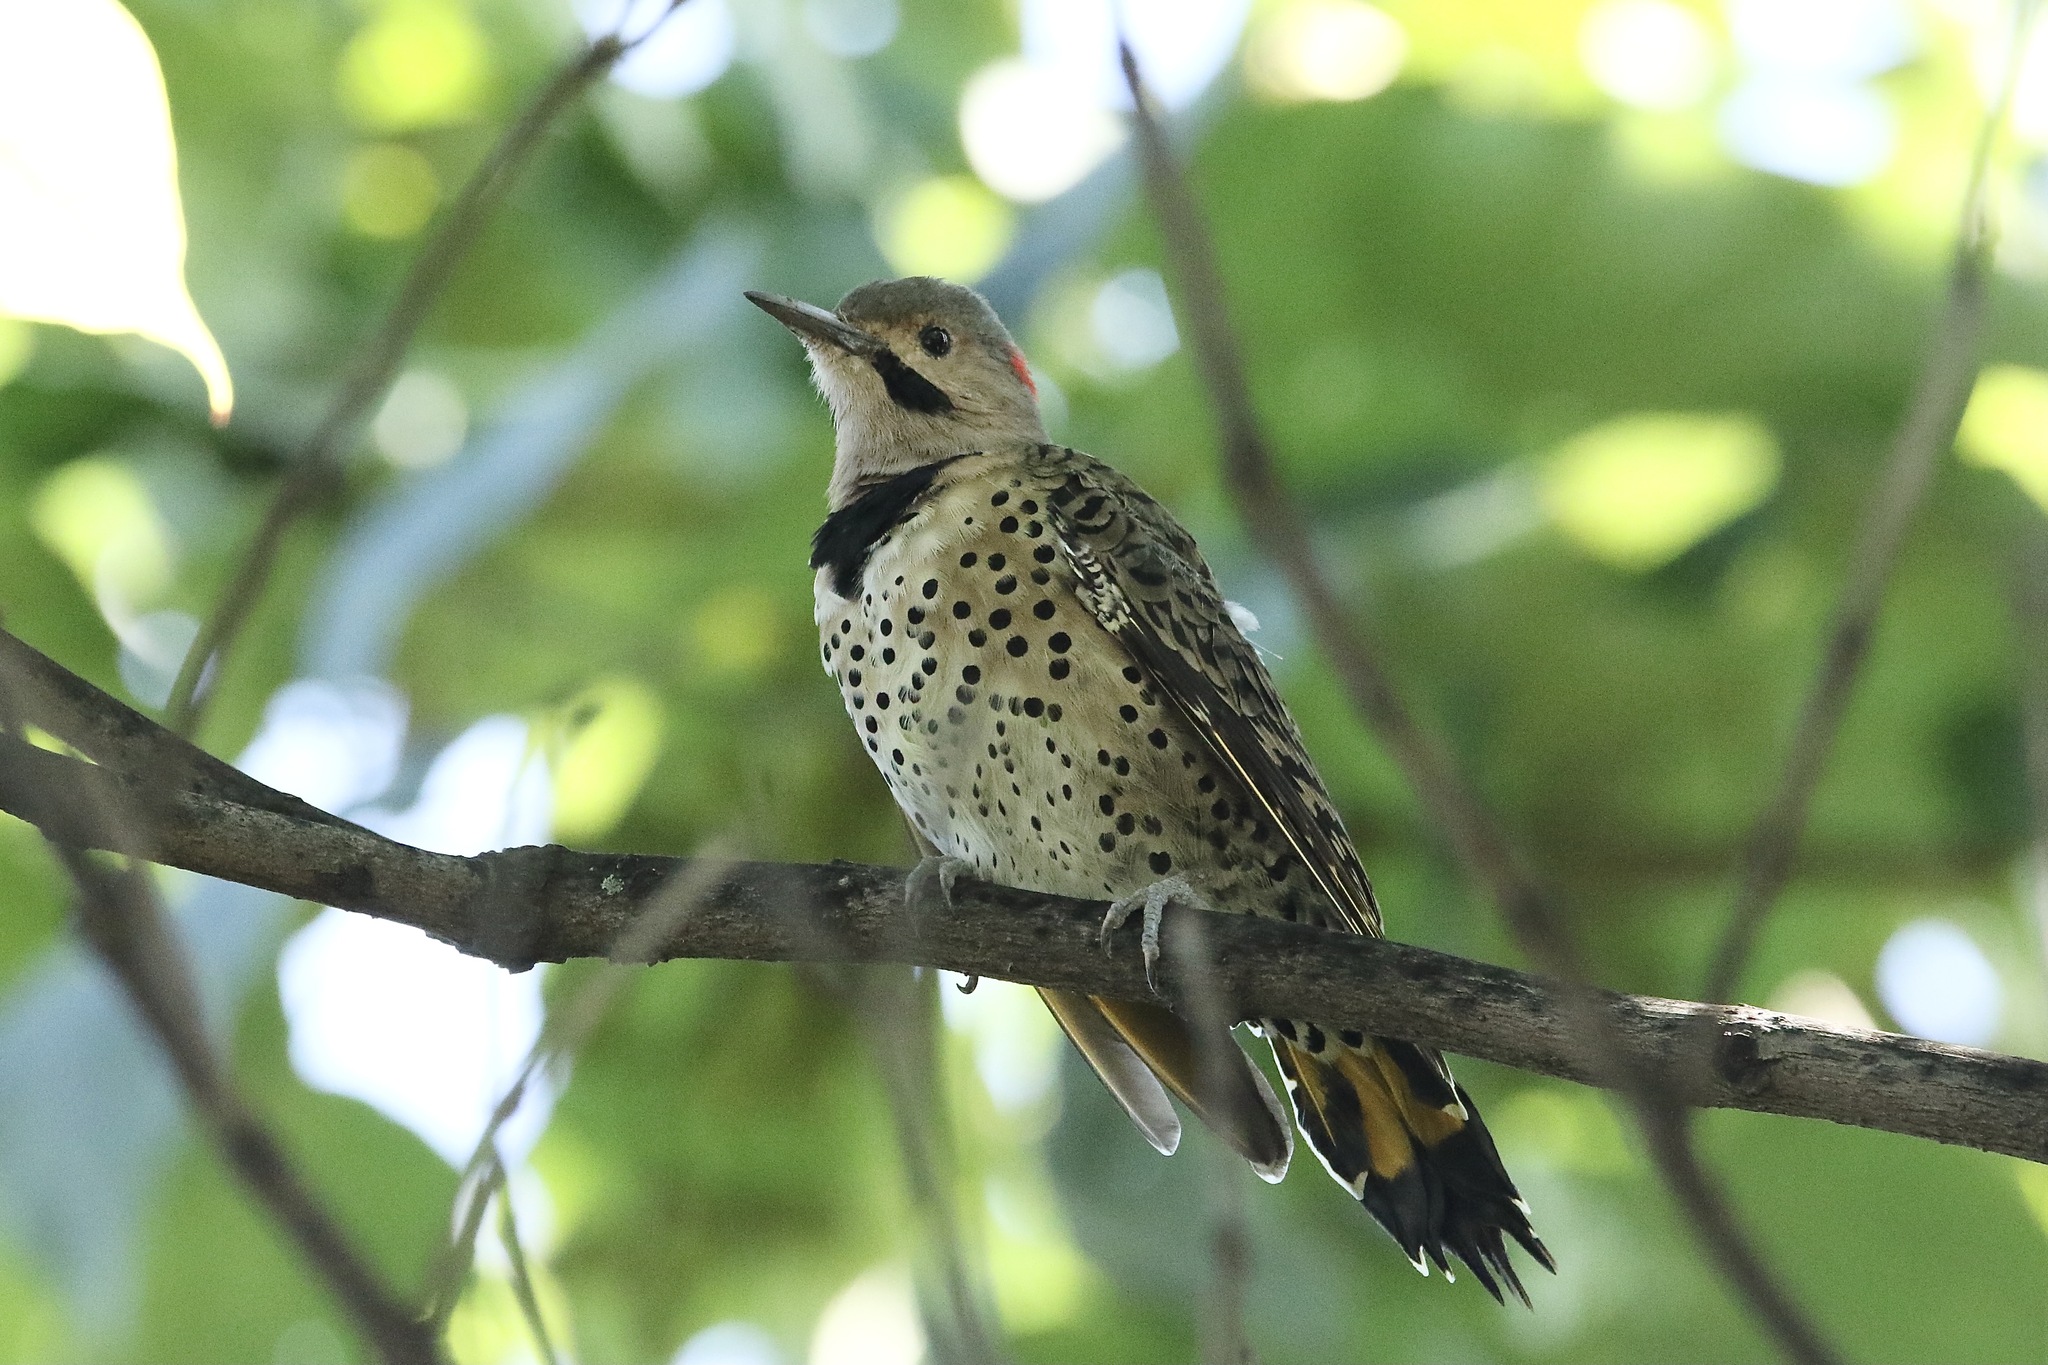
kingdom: Animalia
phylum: Chordata
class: Aves
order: Piciformes
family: Picidae
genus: Colaptes
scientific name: Colaptes auratus
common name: Northern flicker
